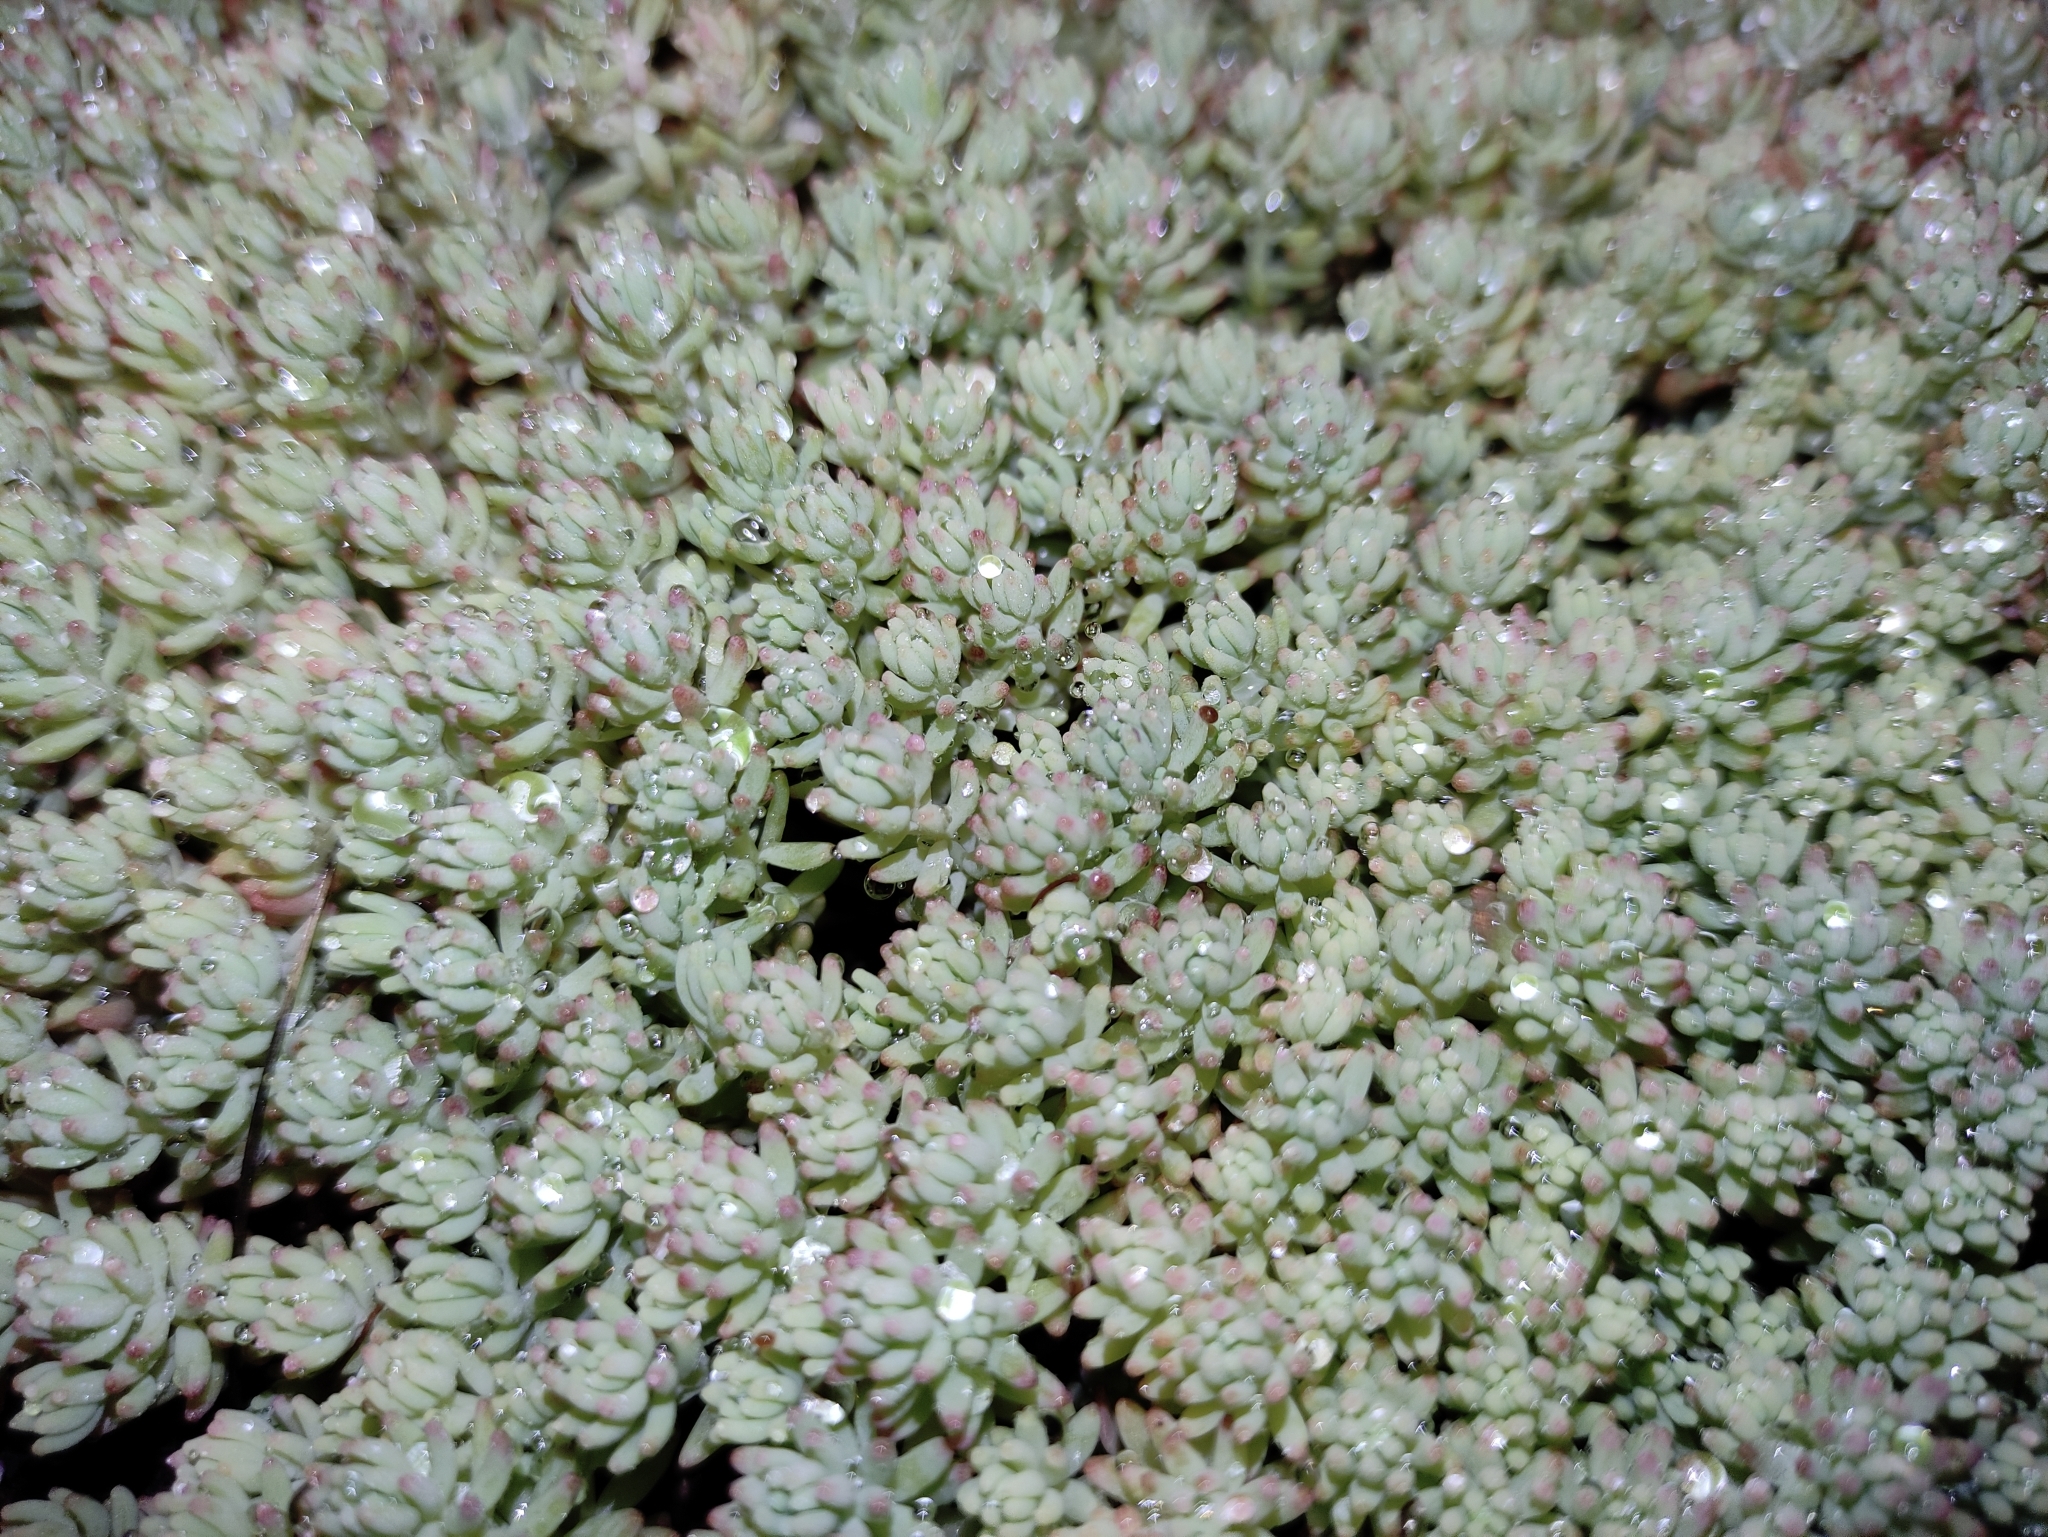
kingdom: Plantae
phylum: Tracheophyta
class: Magnoliopsida
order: Saxifragales
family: Crassulaceae
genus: Sedum
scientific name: Sedum pallidum
